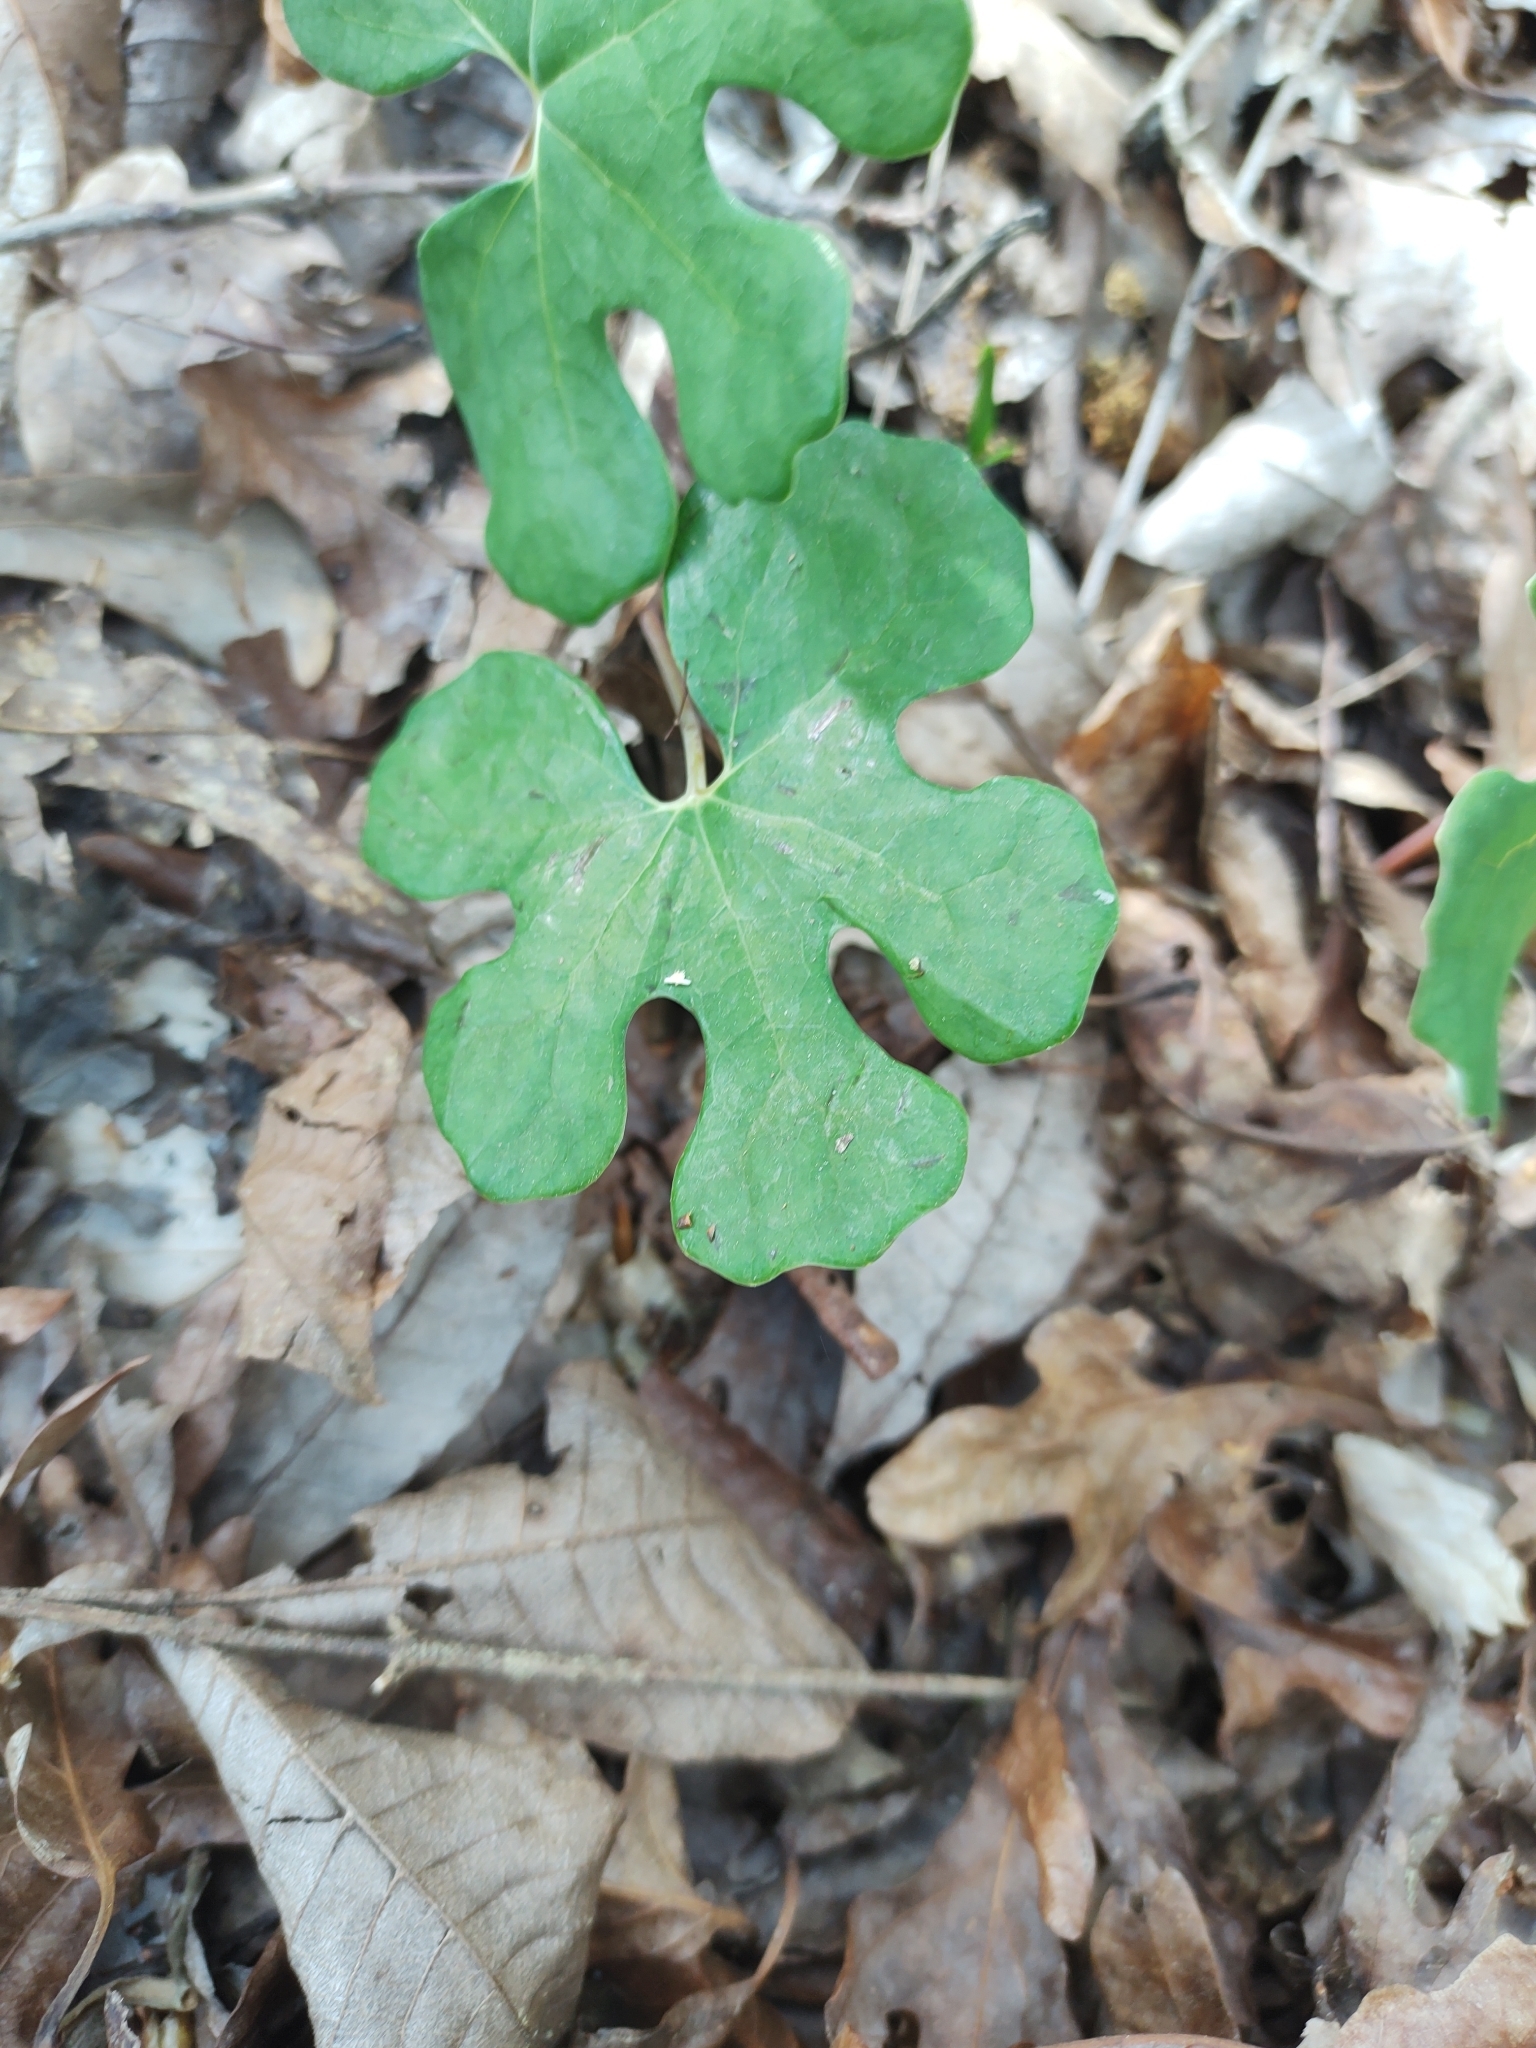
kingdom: Plantae
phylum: Tracheophyta
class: Magnoliopsida
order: Ranunculales
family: Papaveraceae
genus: Sanguinaria
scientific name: Sanguinaria canadensis
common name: Bloodroot
